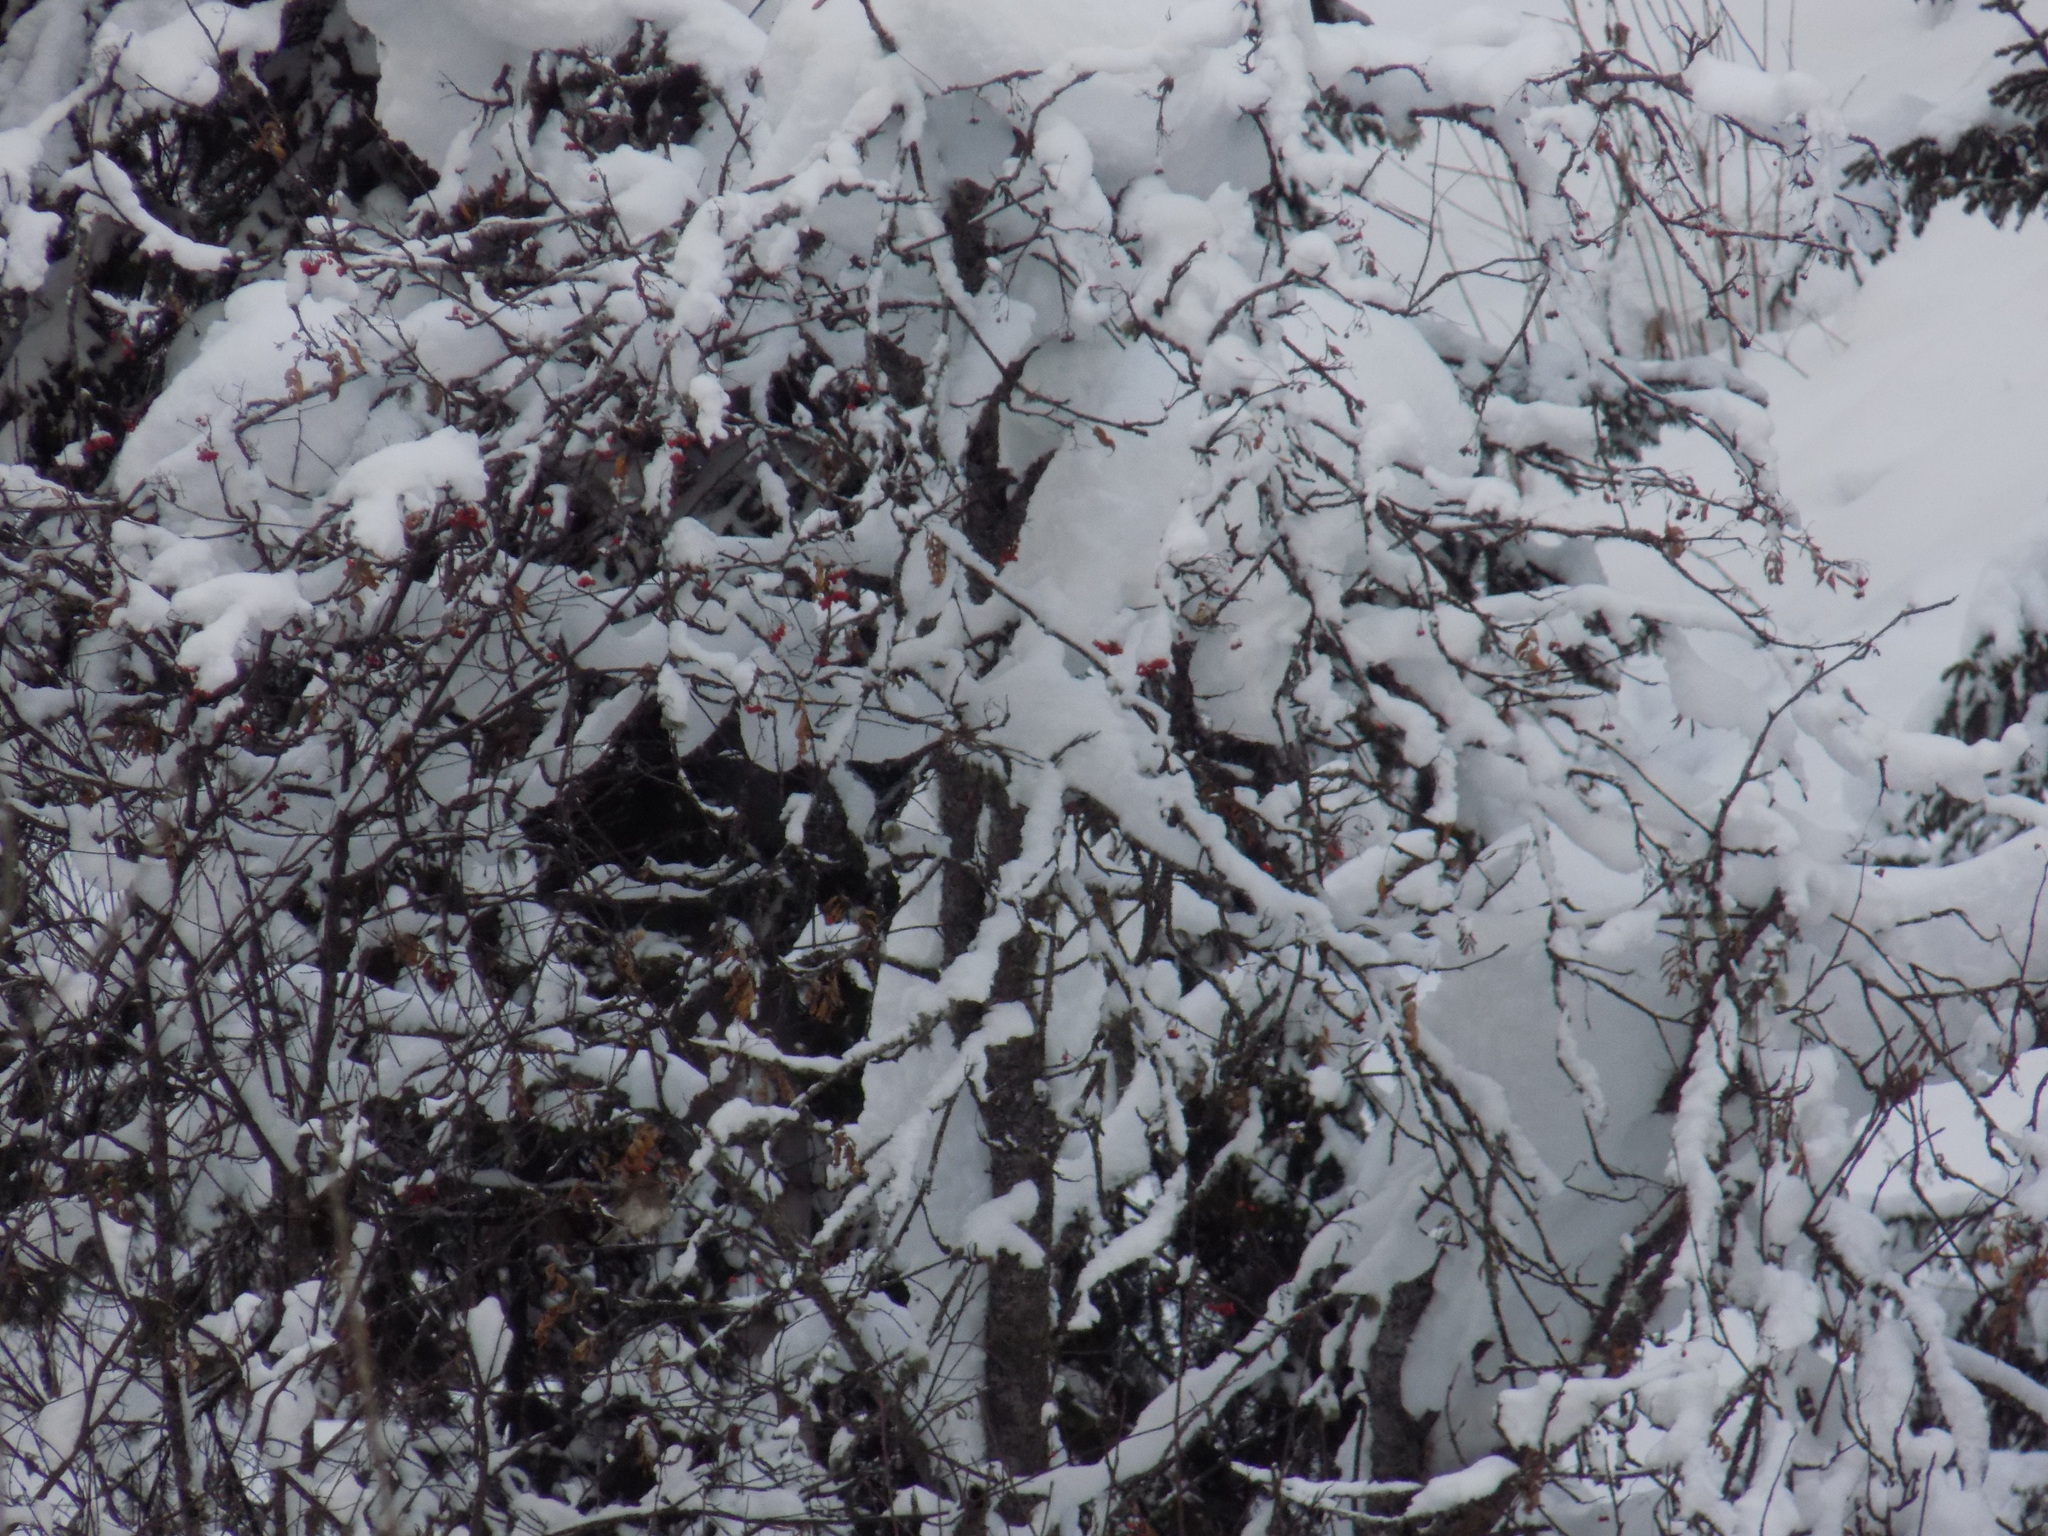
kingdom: Animalia
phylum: Chordata
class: Aves
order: Passeriformes
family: Turdidae
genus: Turdus
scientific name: Turdus atrogularis
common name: Black-throated thrush
